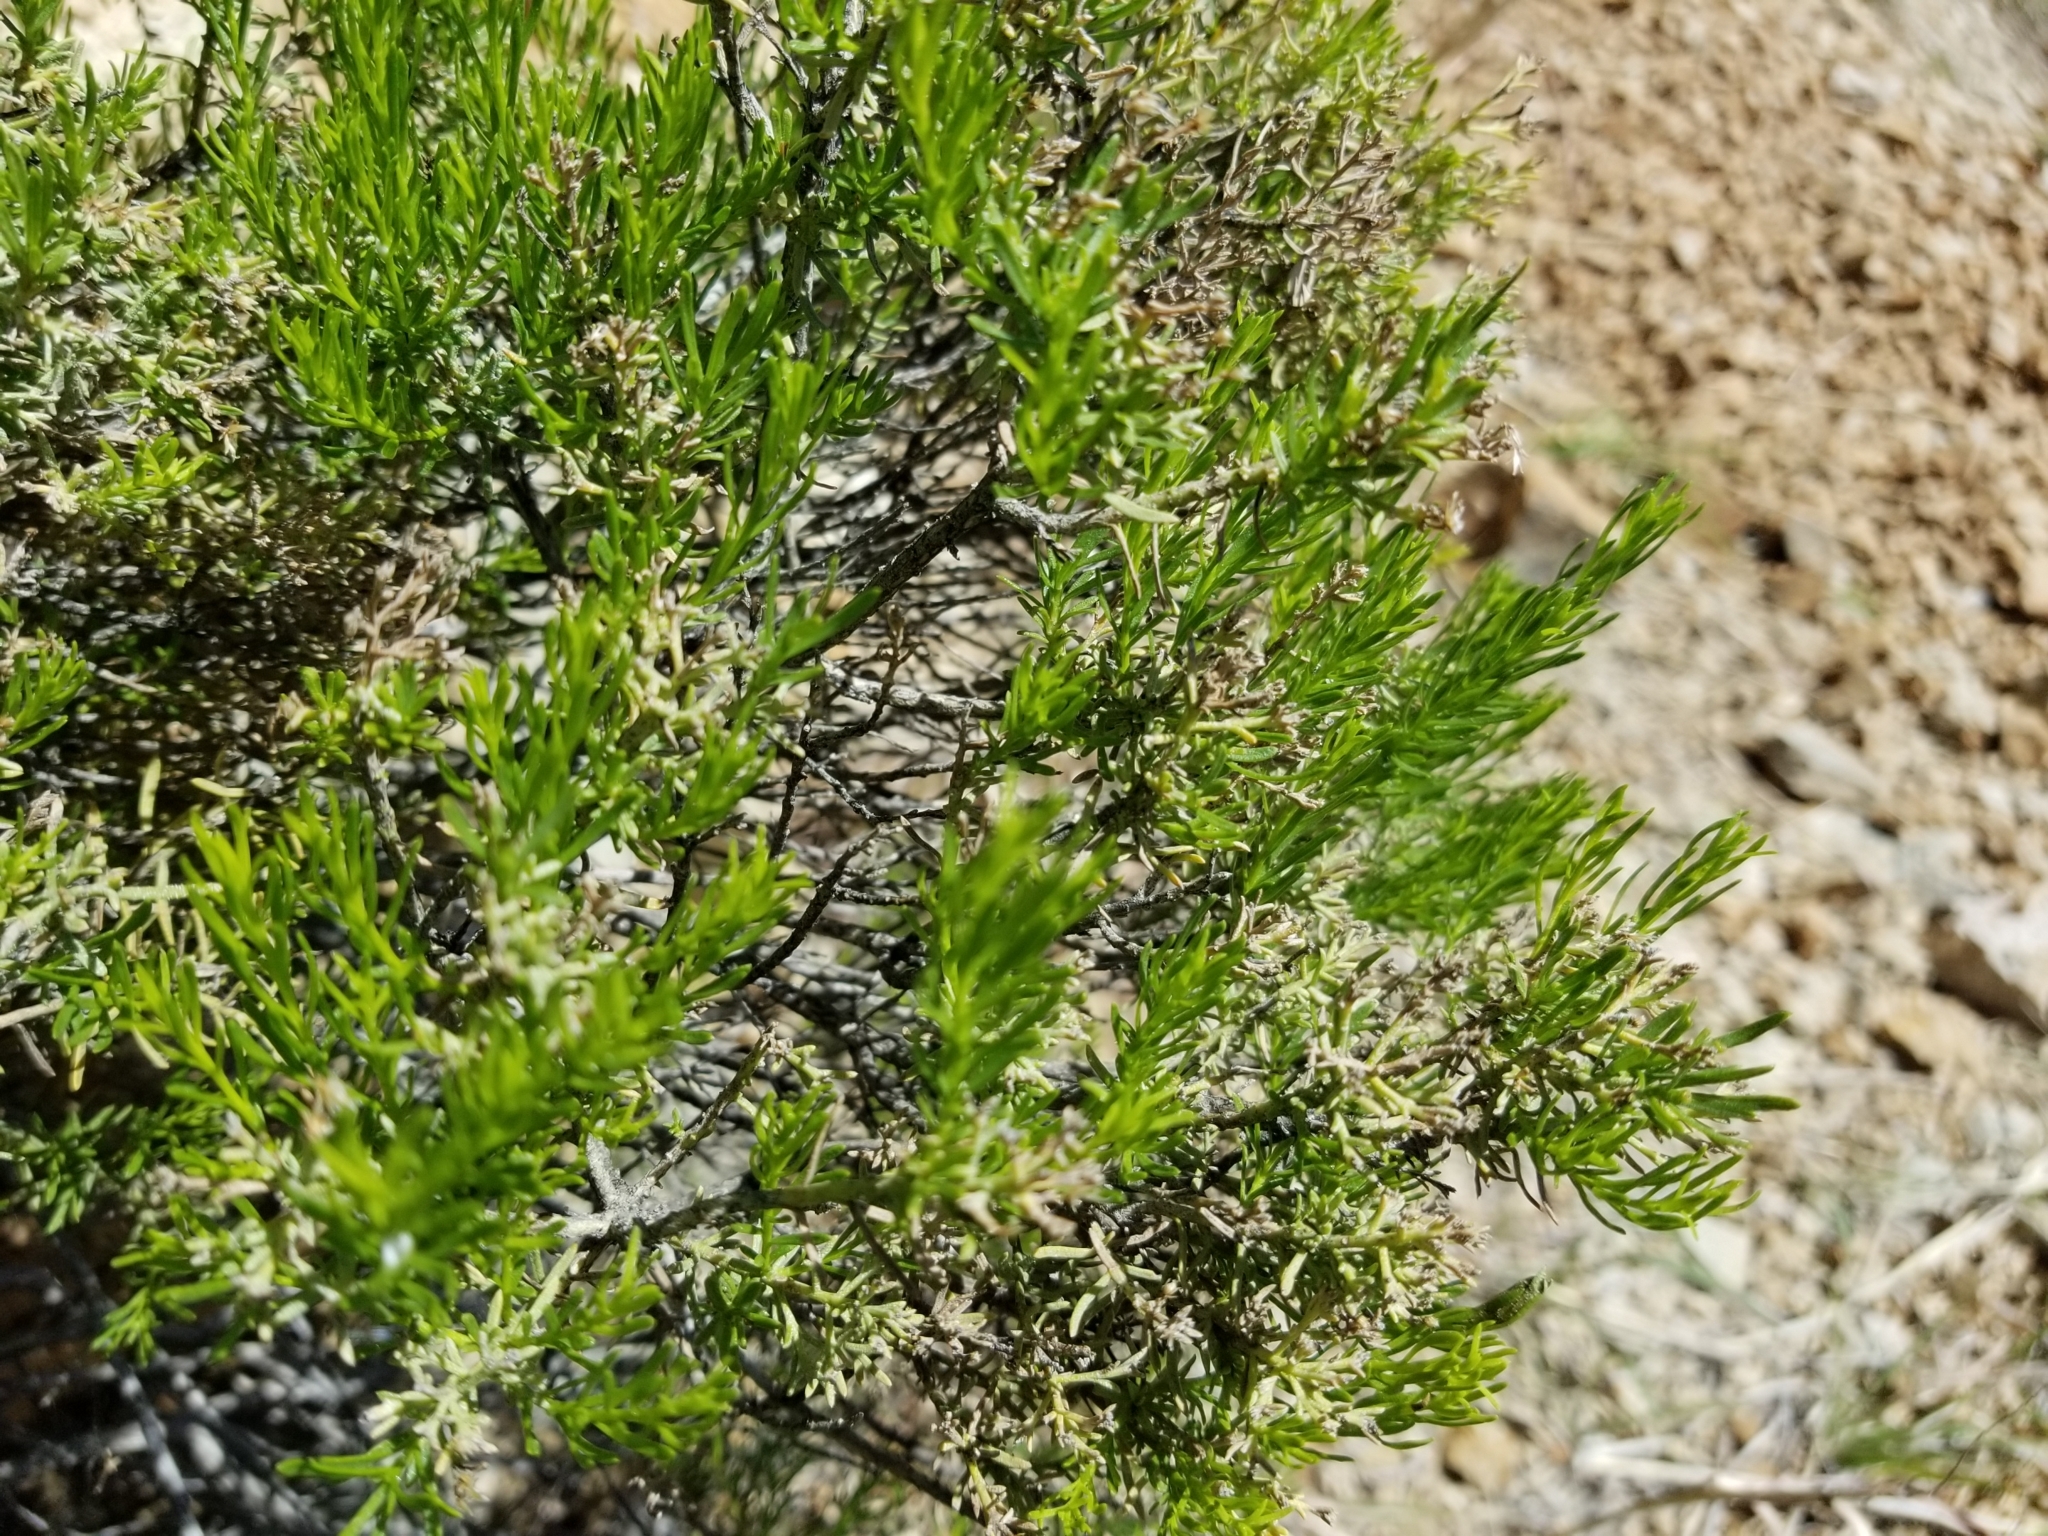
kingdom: Plantae
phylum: Tracheophyta
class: Magnoliopsida
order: Asterales
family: Asteraceae
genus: Peucephyllum
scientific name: Peucephyllum schottii
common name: Pygmy-cedar
